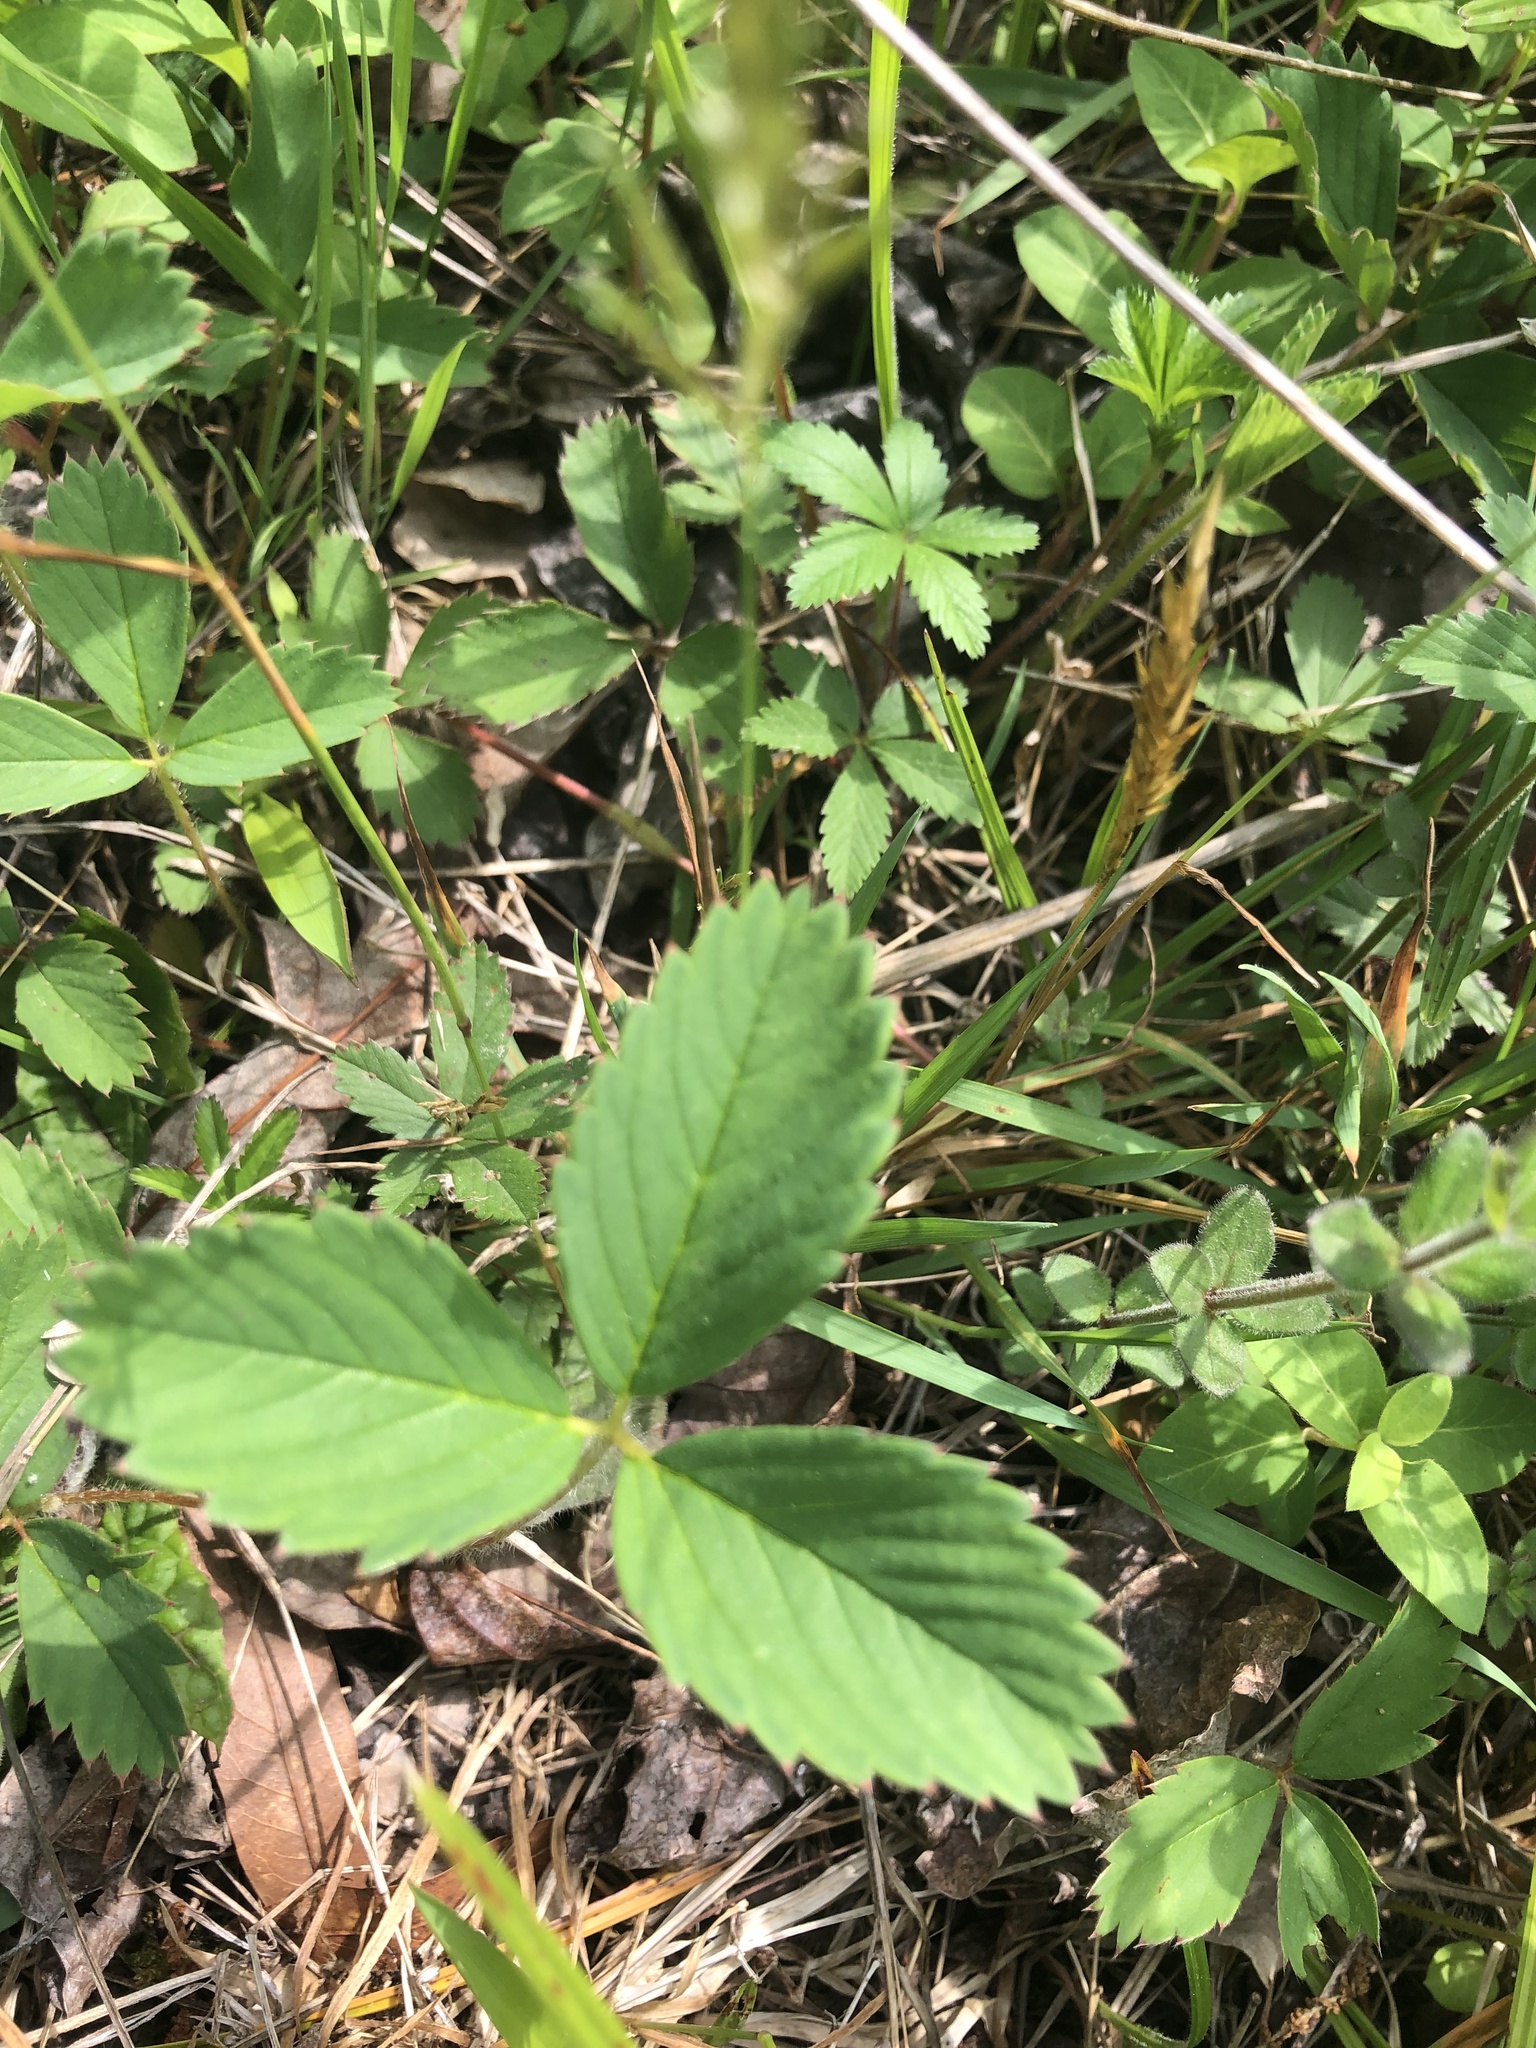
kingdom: Plantae
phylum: Tracheophyta
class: Magnoliopsida
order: Rosales
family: Rosaceae
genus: Fragaria
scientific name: Fragaria virginiana
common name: Thickleaved wild strawberry
